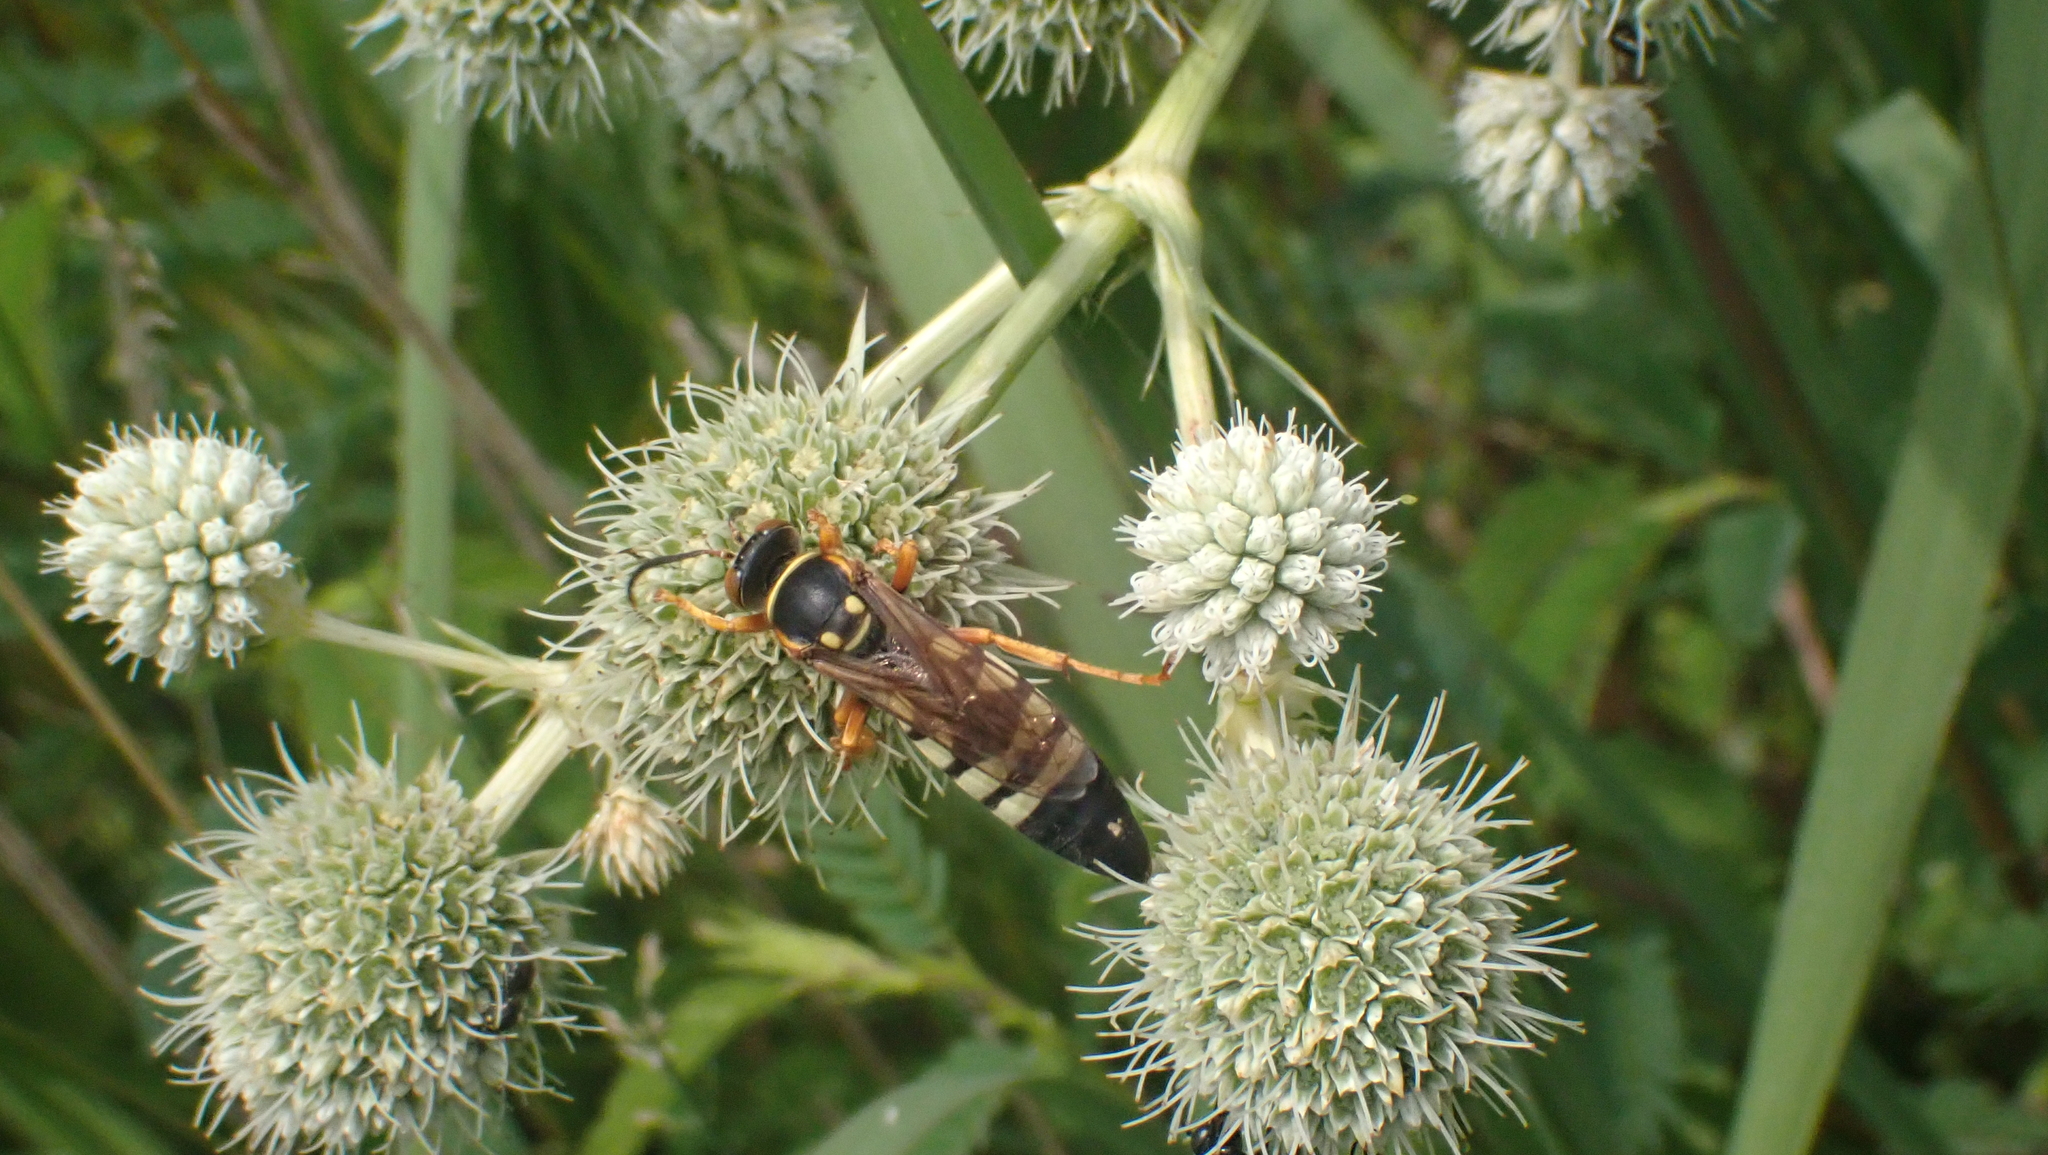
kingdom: Animalia
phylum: Arthropoda
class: Insecta
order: Hymenoptera
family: Crabronidae
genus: Stizus
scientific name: Stizus brevipennis
